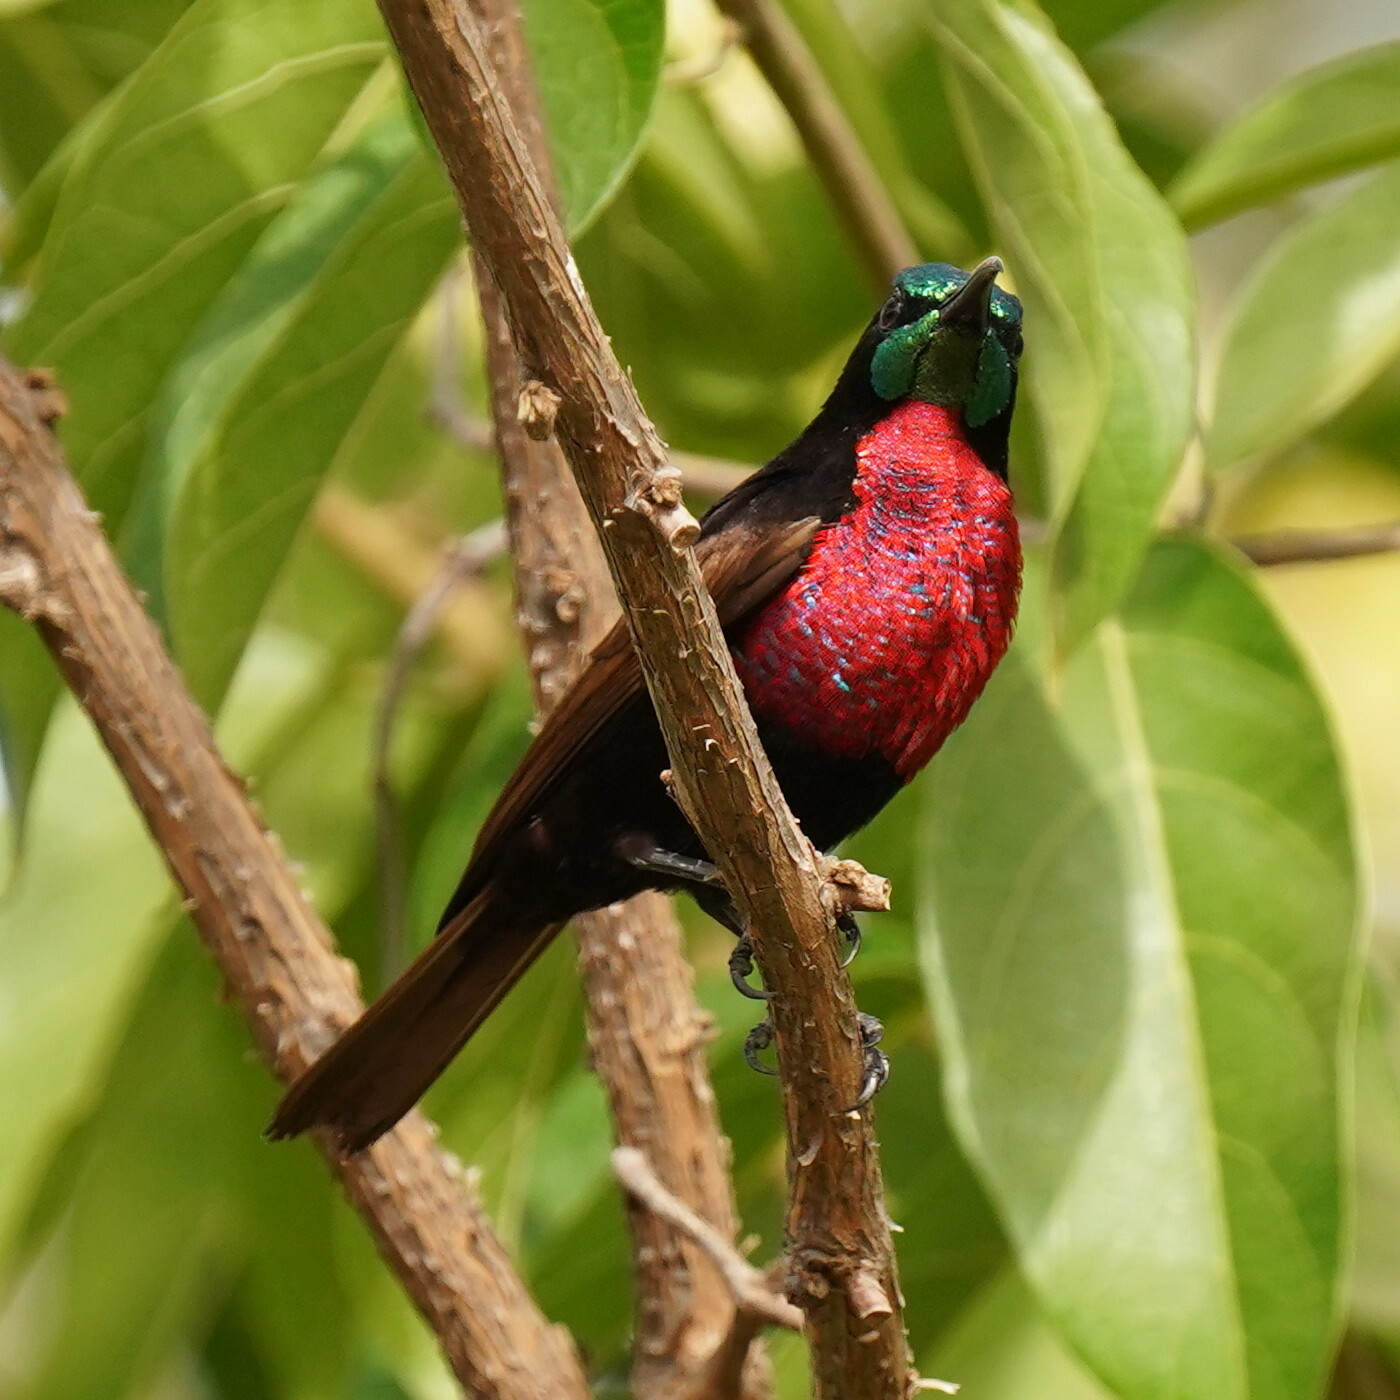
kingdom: Animalia
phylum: Chordata
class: Aves
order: Passeriformes
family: Nectariniidae
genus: Chalcomitra
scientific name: Chalcomitra senegalensis
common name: Scarlet-chested sunbird
